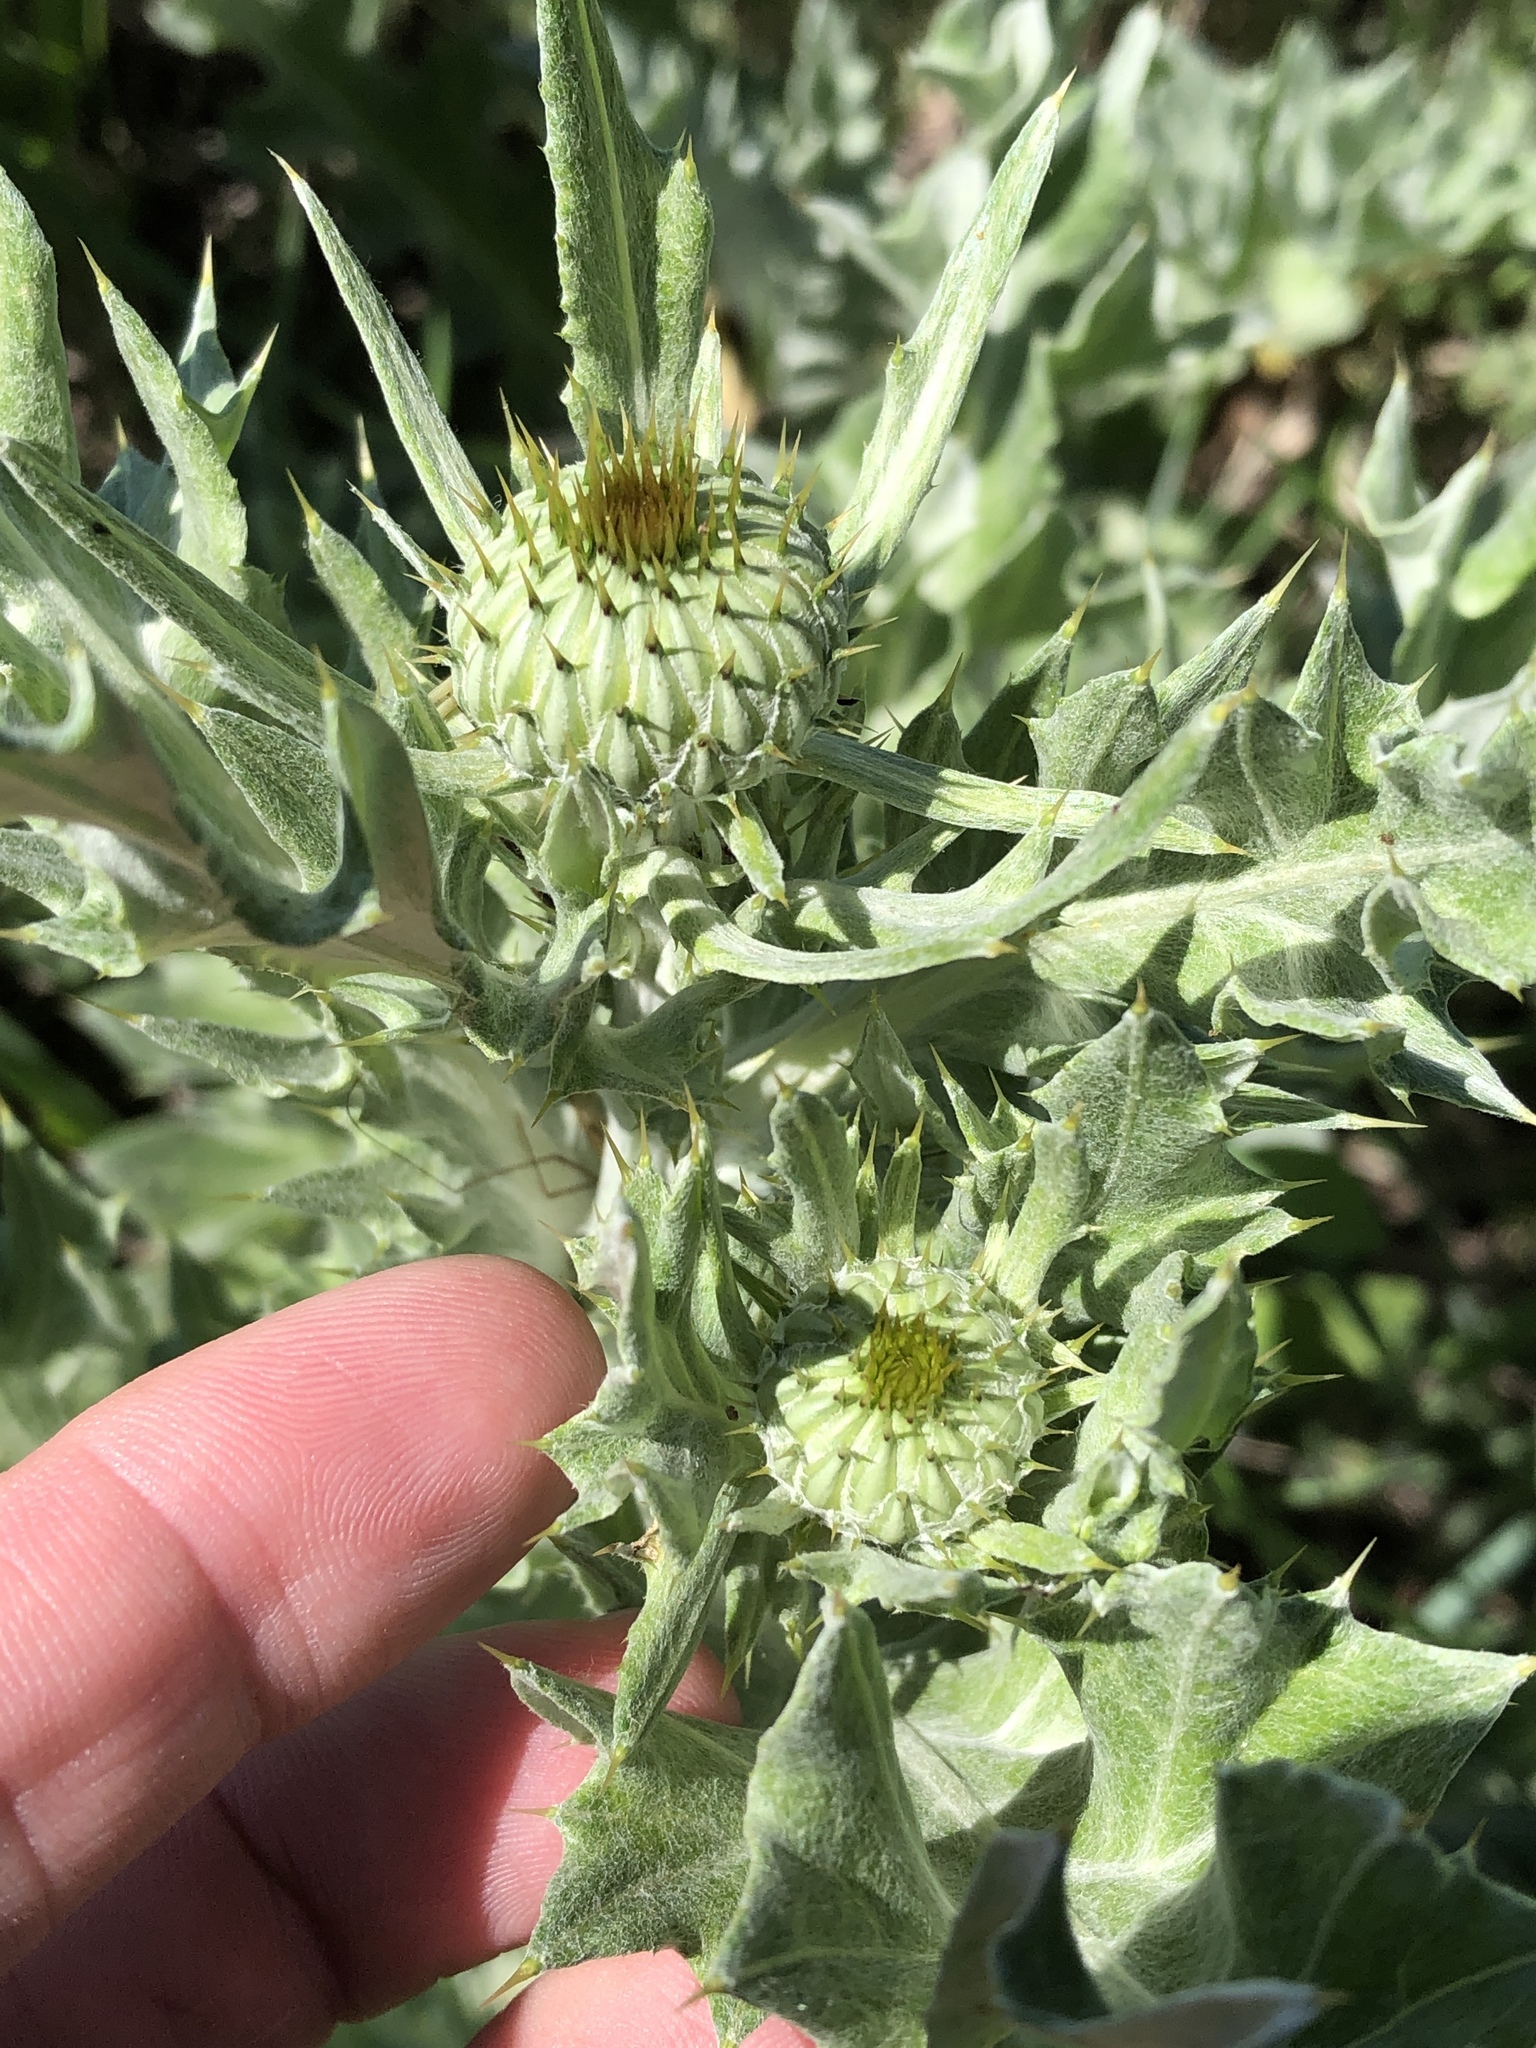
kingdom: Plantae
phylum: Tracheophyta
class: Magnoliopsida
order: Asterales
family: Asteraceae
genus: Cirsium
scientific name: Cirsium undulatum
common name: Pasture thistle
